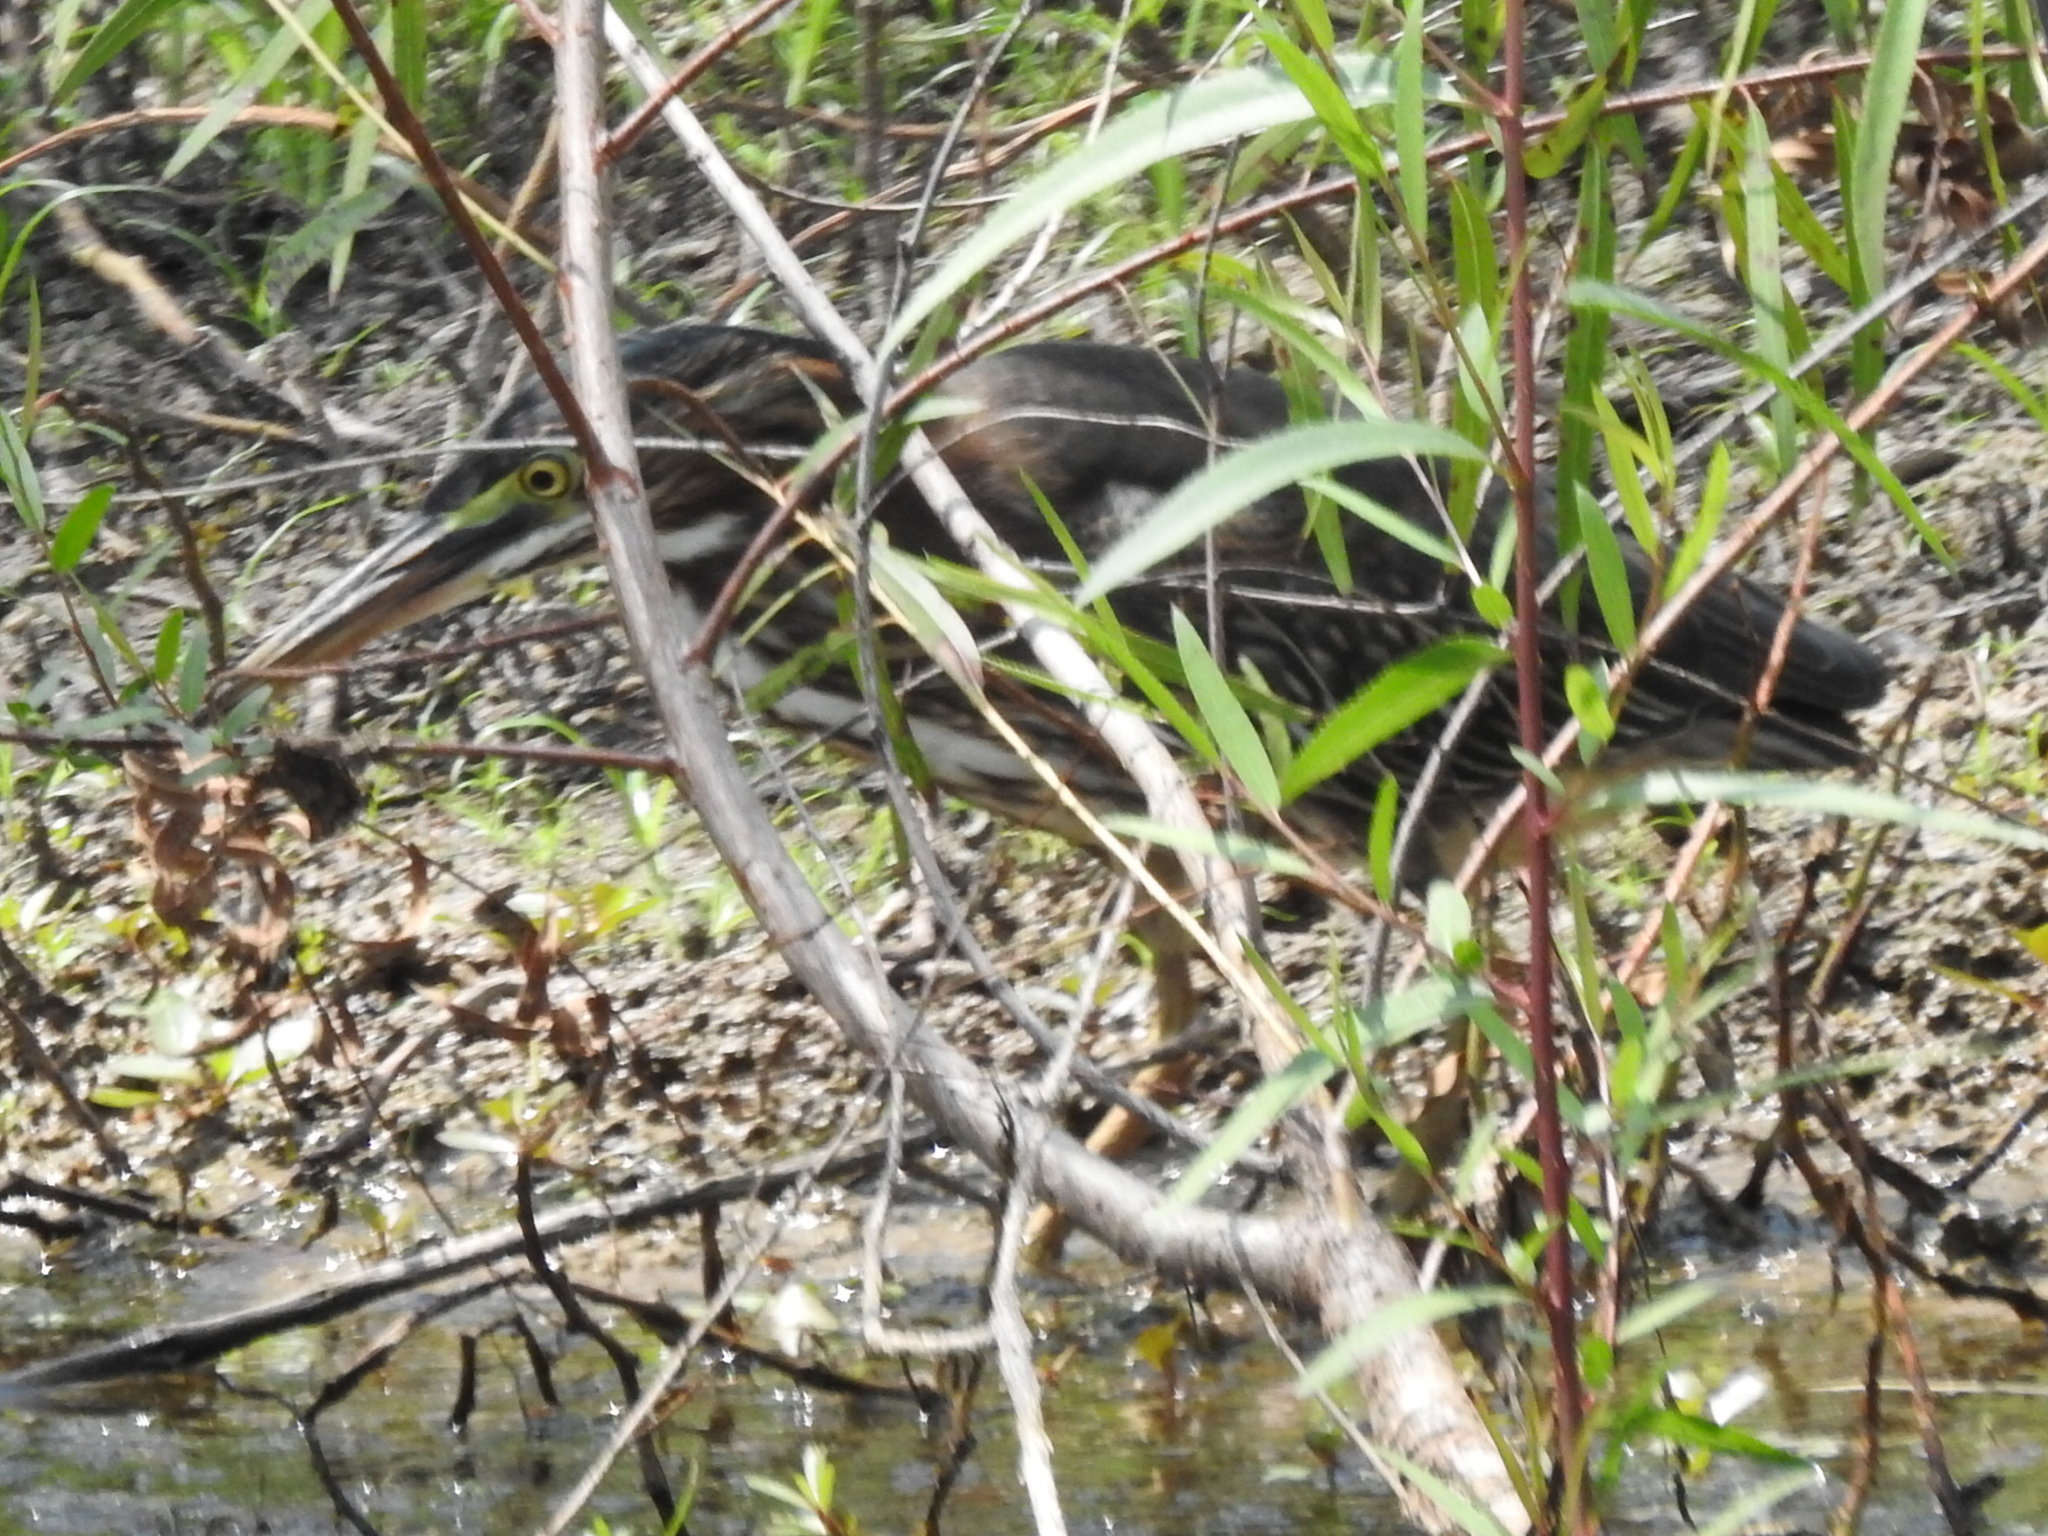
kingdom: Animalia
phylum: Chordata
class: Aves
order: Pelecaniformes
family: Ardeidae
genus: Butorides
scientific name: Butorides virescens
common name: Green heron
